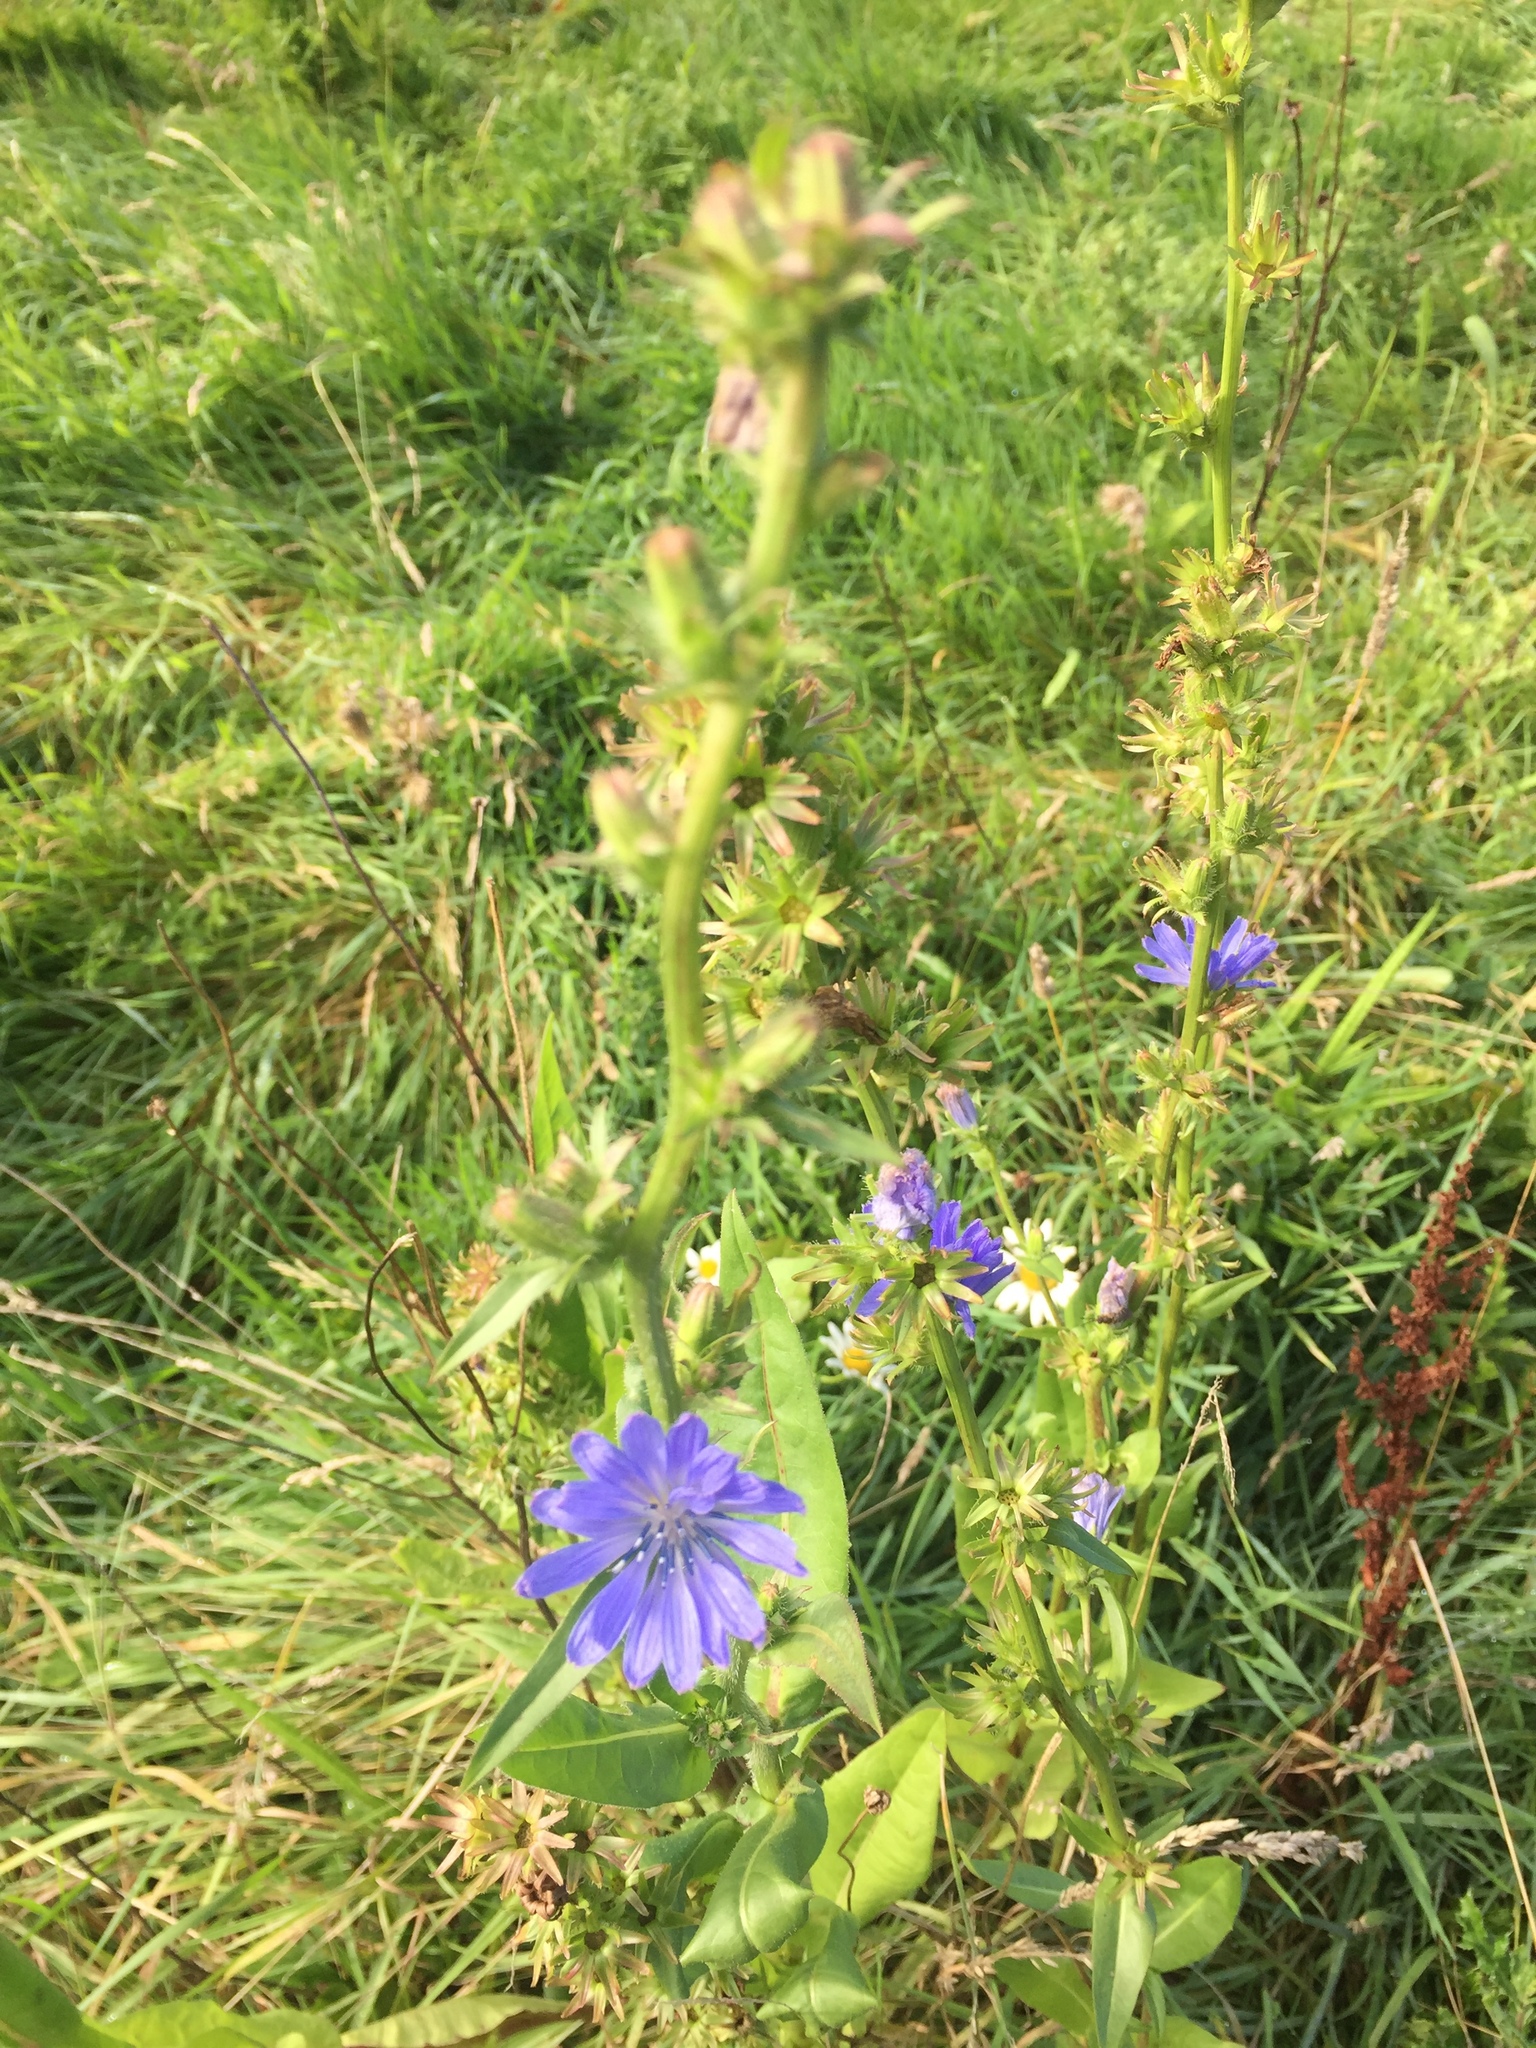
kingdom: Plantae
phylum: Tracheophyta
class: Magnoliopsida
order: Asterales
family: Asteraceae
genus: Cichorium
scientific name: Cichorium intybus
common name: Chicory
